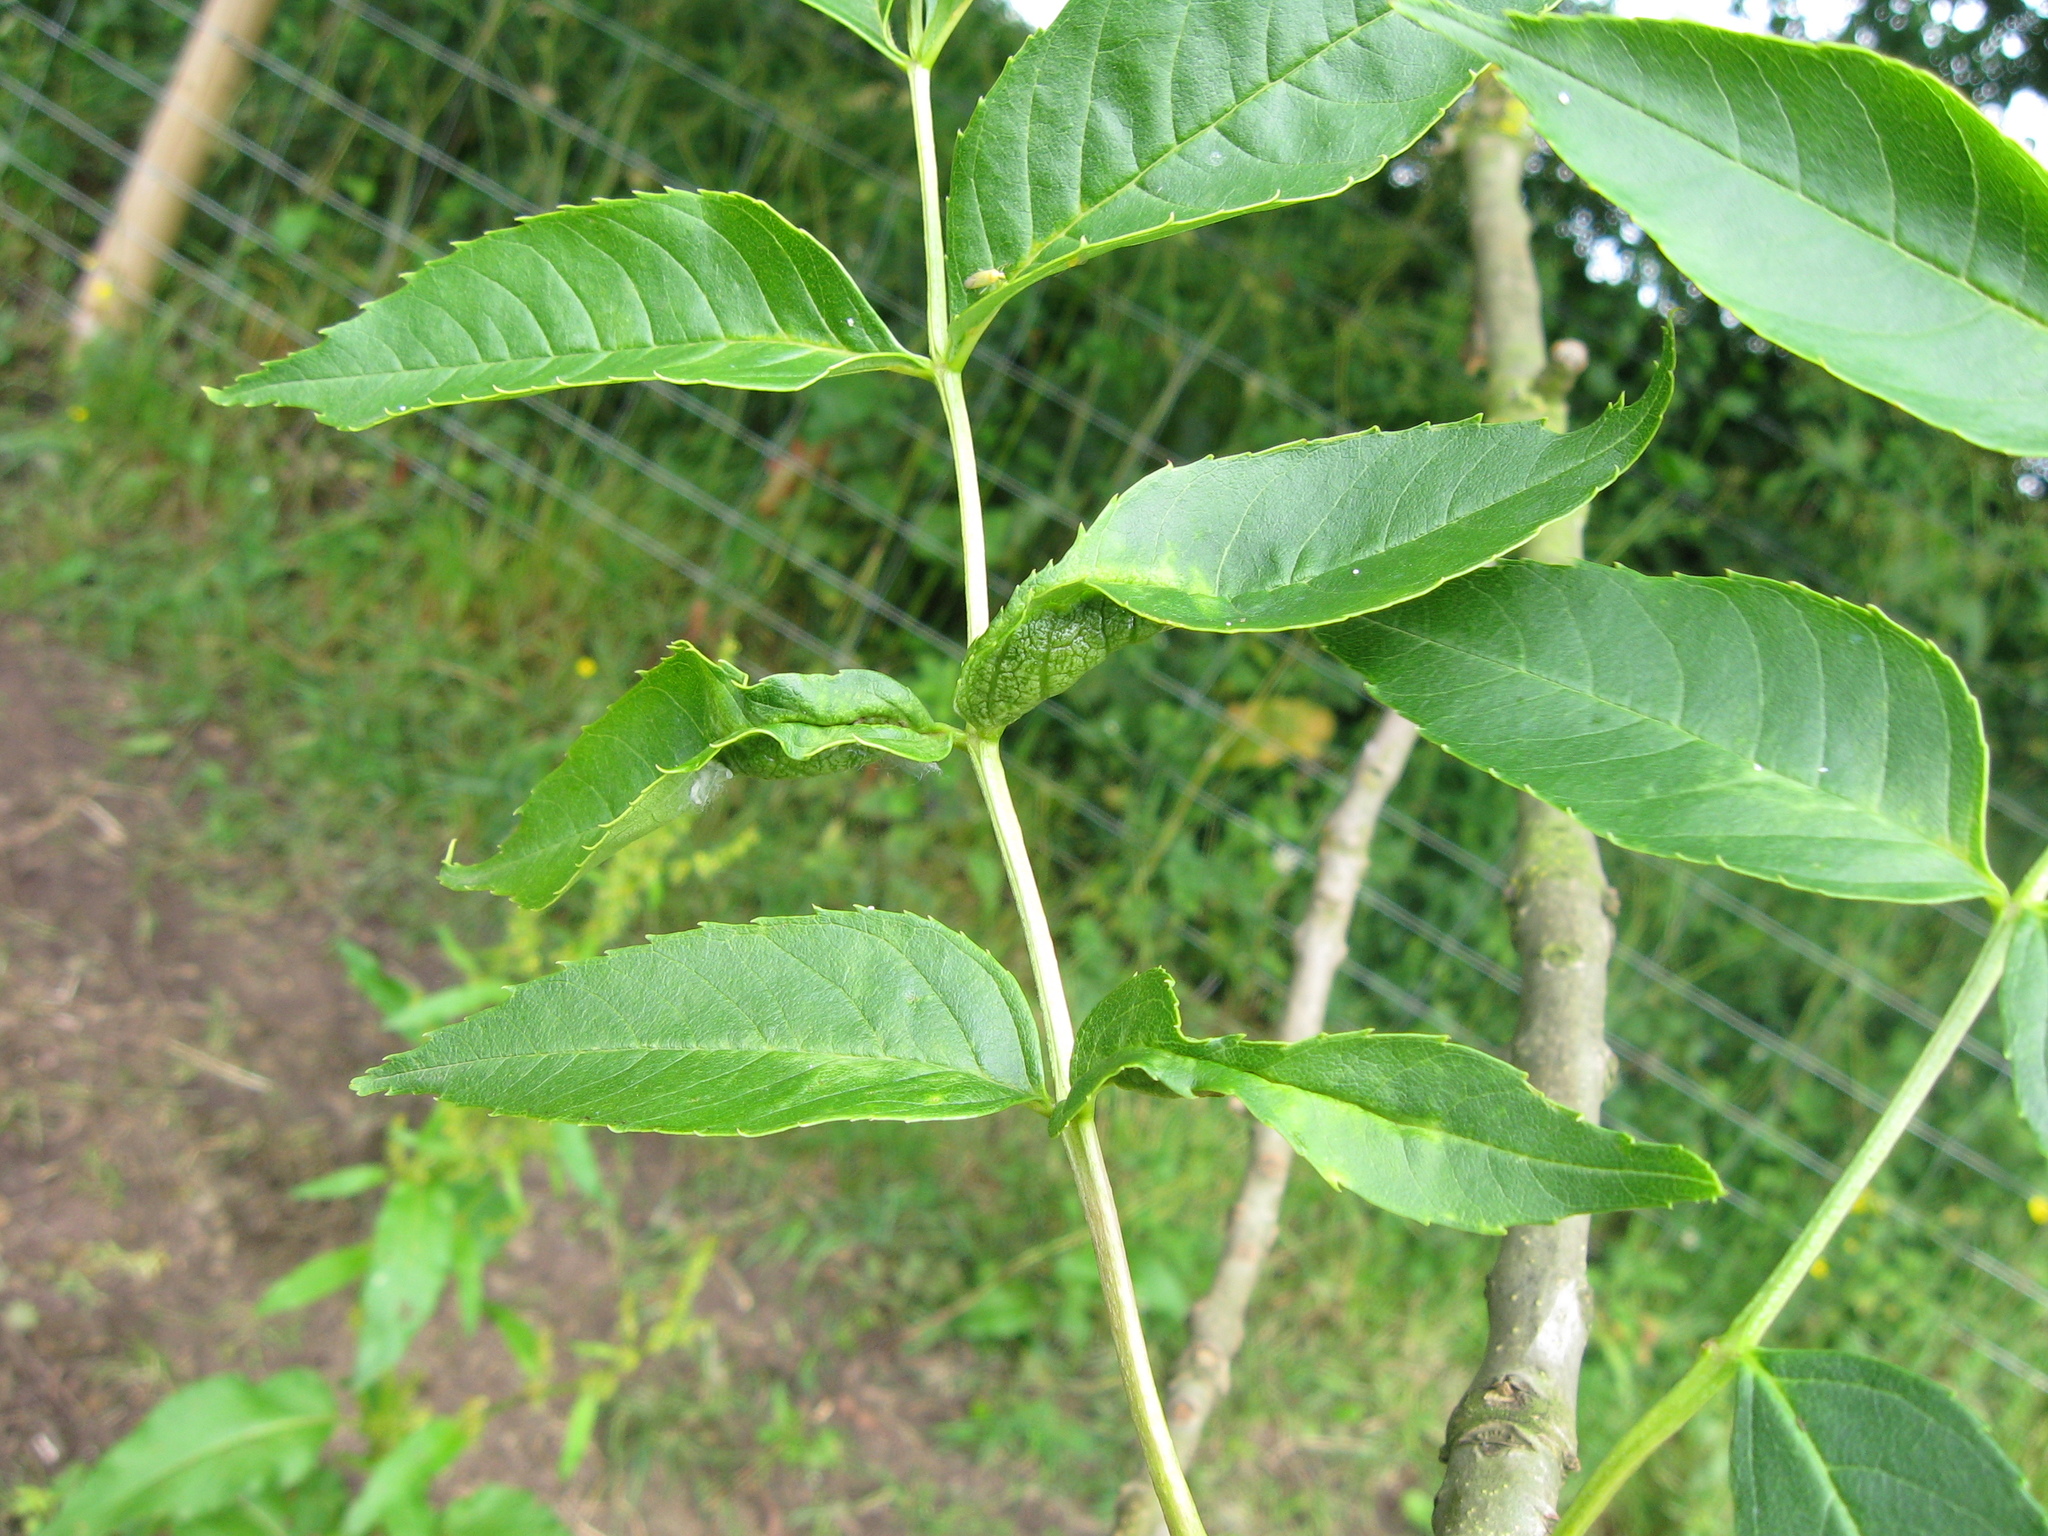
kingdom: Animalia
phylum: Arthropoda
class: Insecta
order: Diptera
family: Cecidomyiidae
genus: Dasineura
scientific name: Dasineura acrophila
